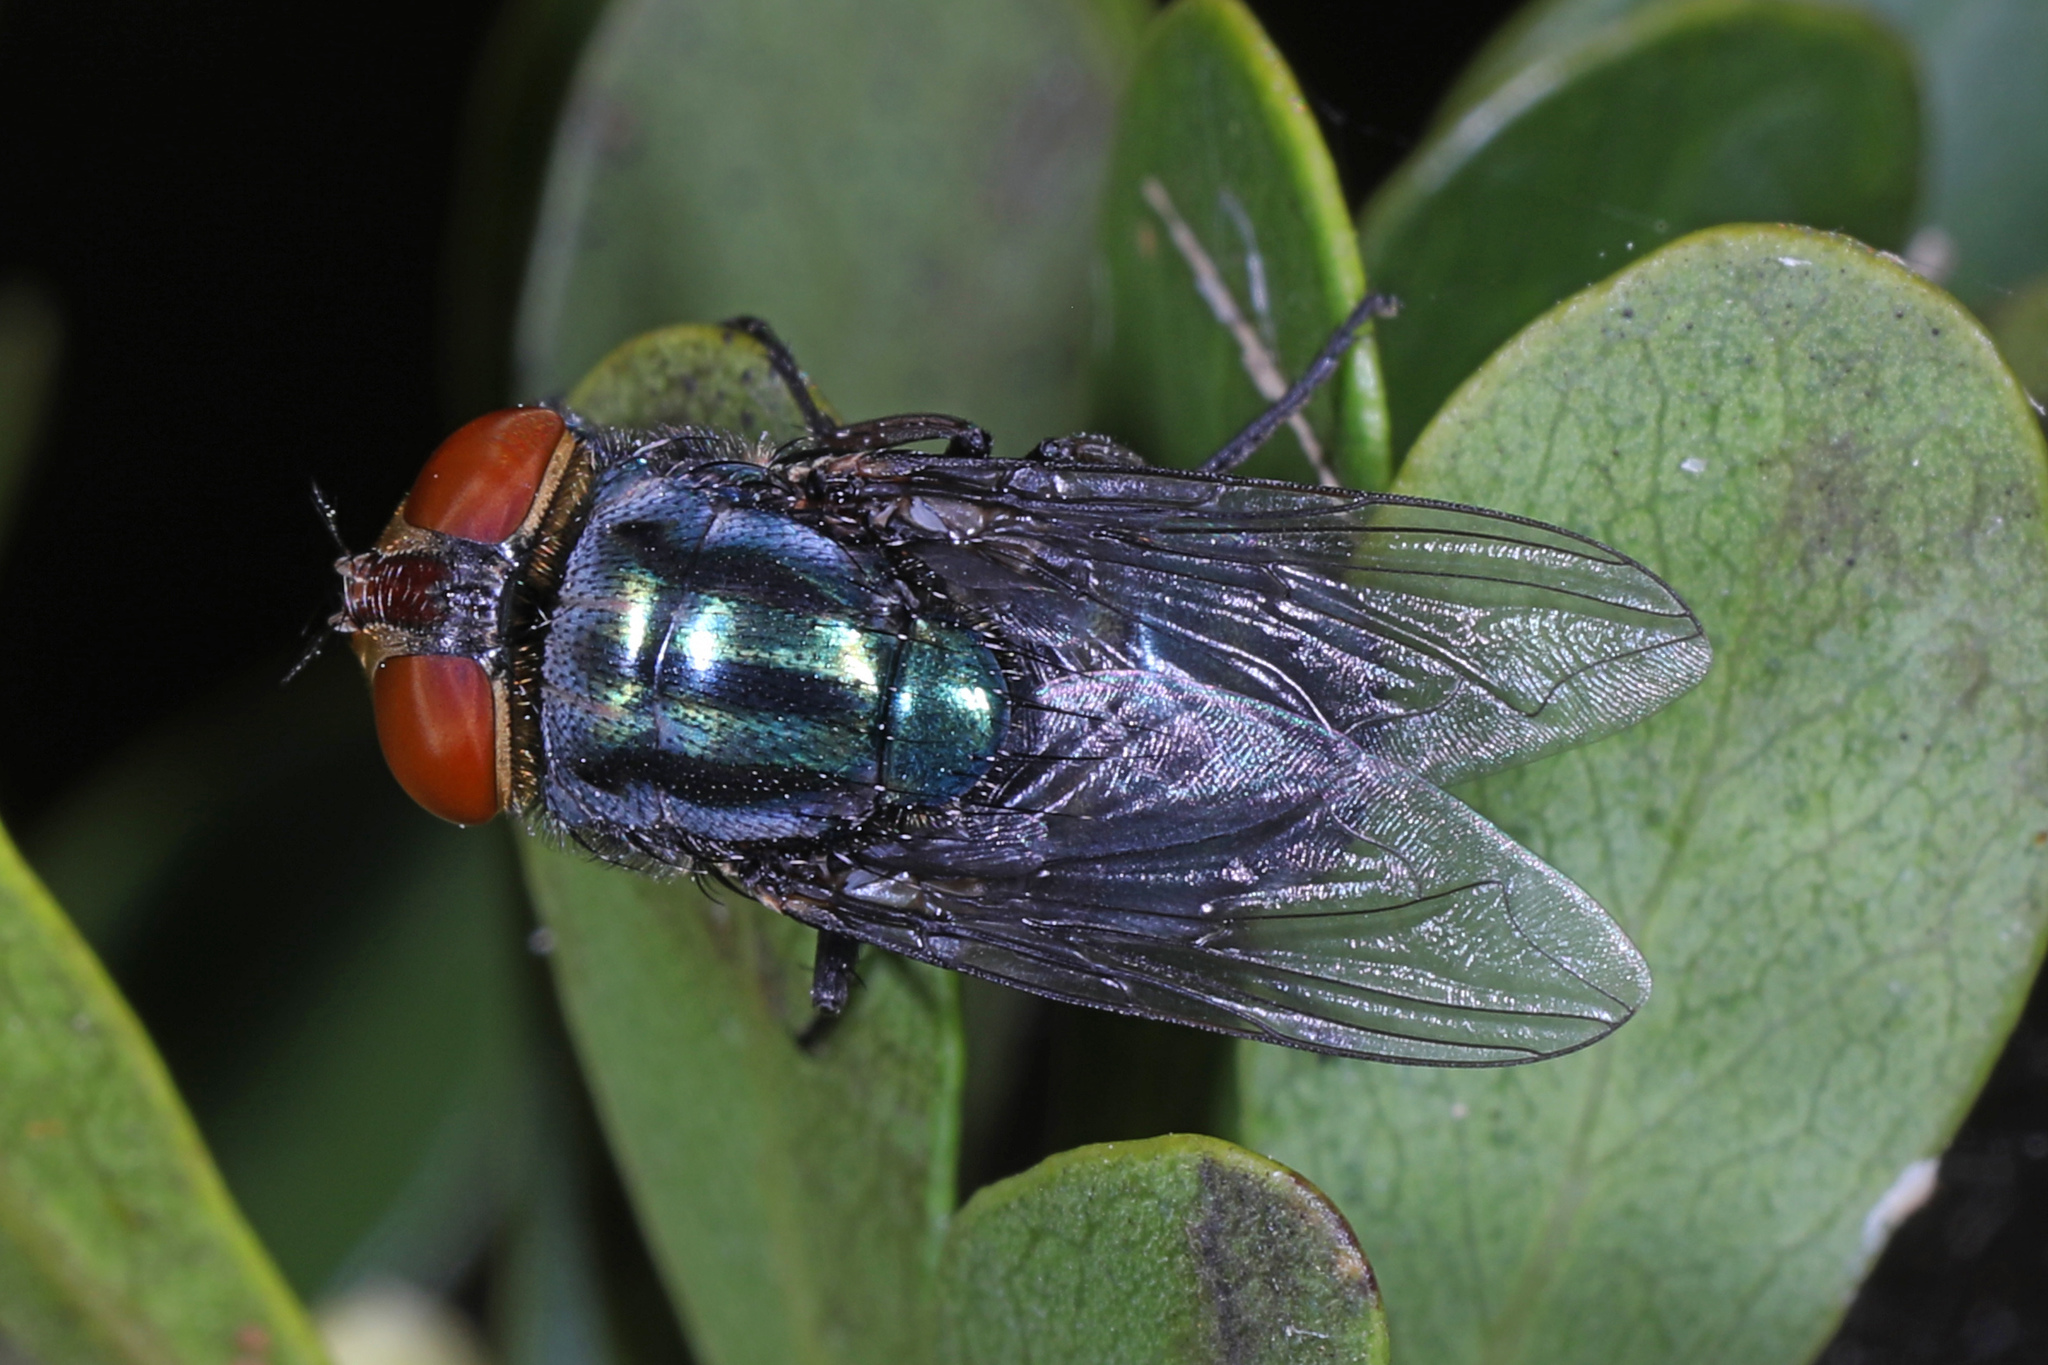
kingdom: Animalia
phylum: Arthropoda
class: Insecta
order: Diptera
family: Calliphoridae
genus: Cochliomyia
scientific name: Cochliomyia macellaria
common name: Secondary screwworm
